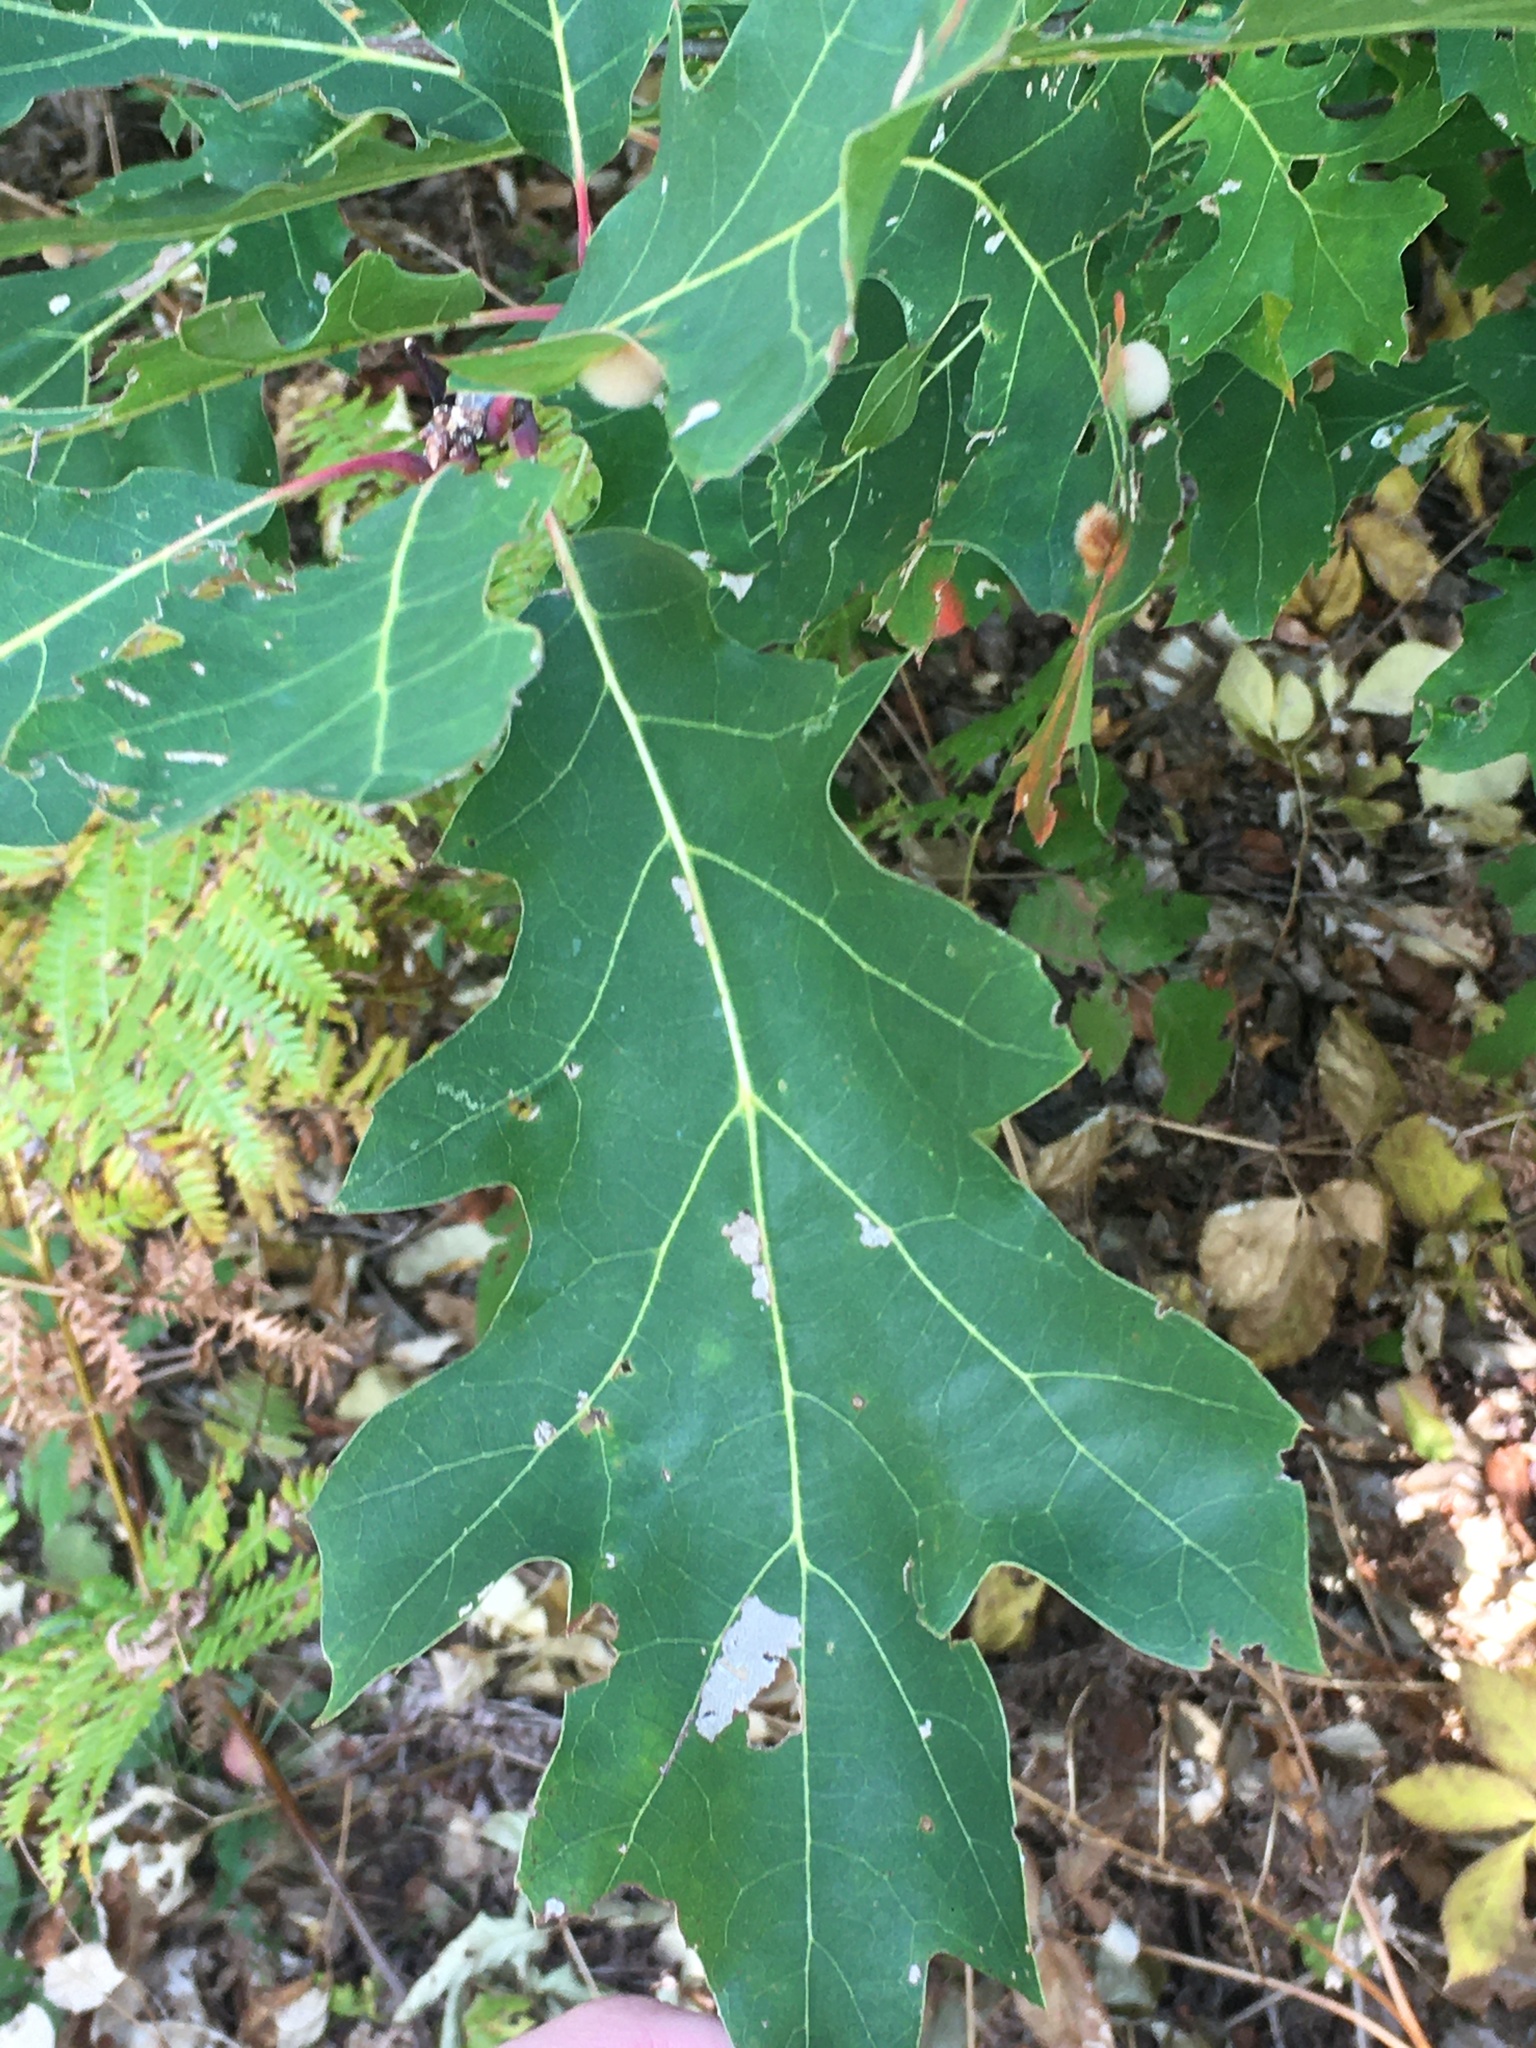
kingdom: Plantae
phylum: Tracheophyta
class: Magnoliopsida
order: Fagales
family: Fagaceae
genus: Quercus
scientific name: Quercus rubra
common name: Red oak
